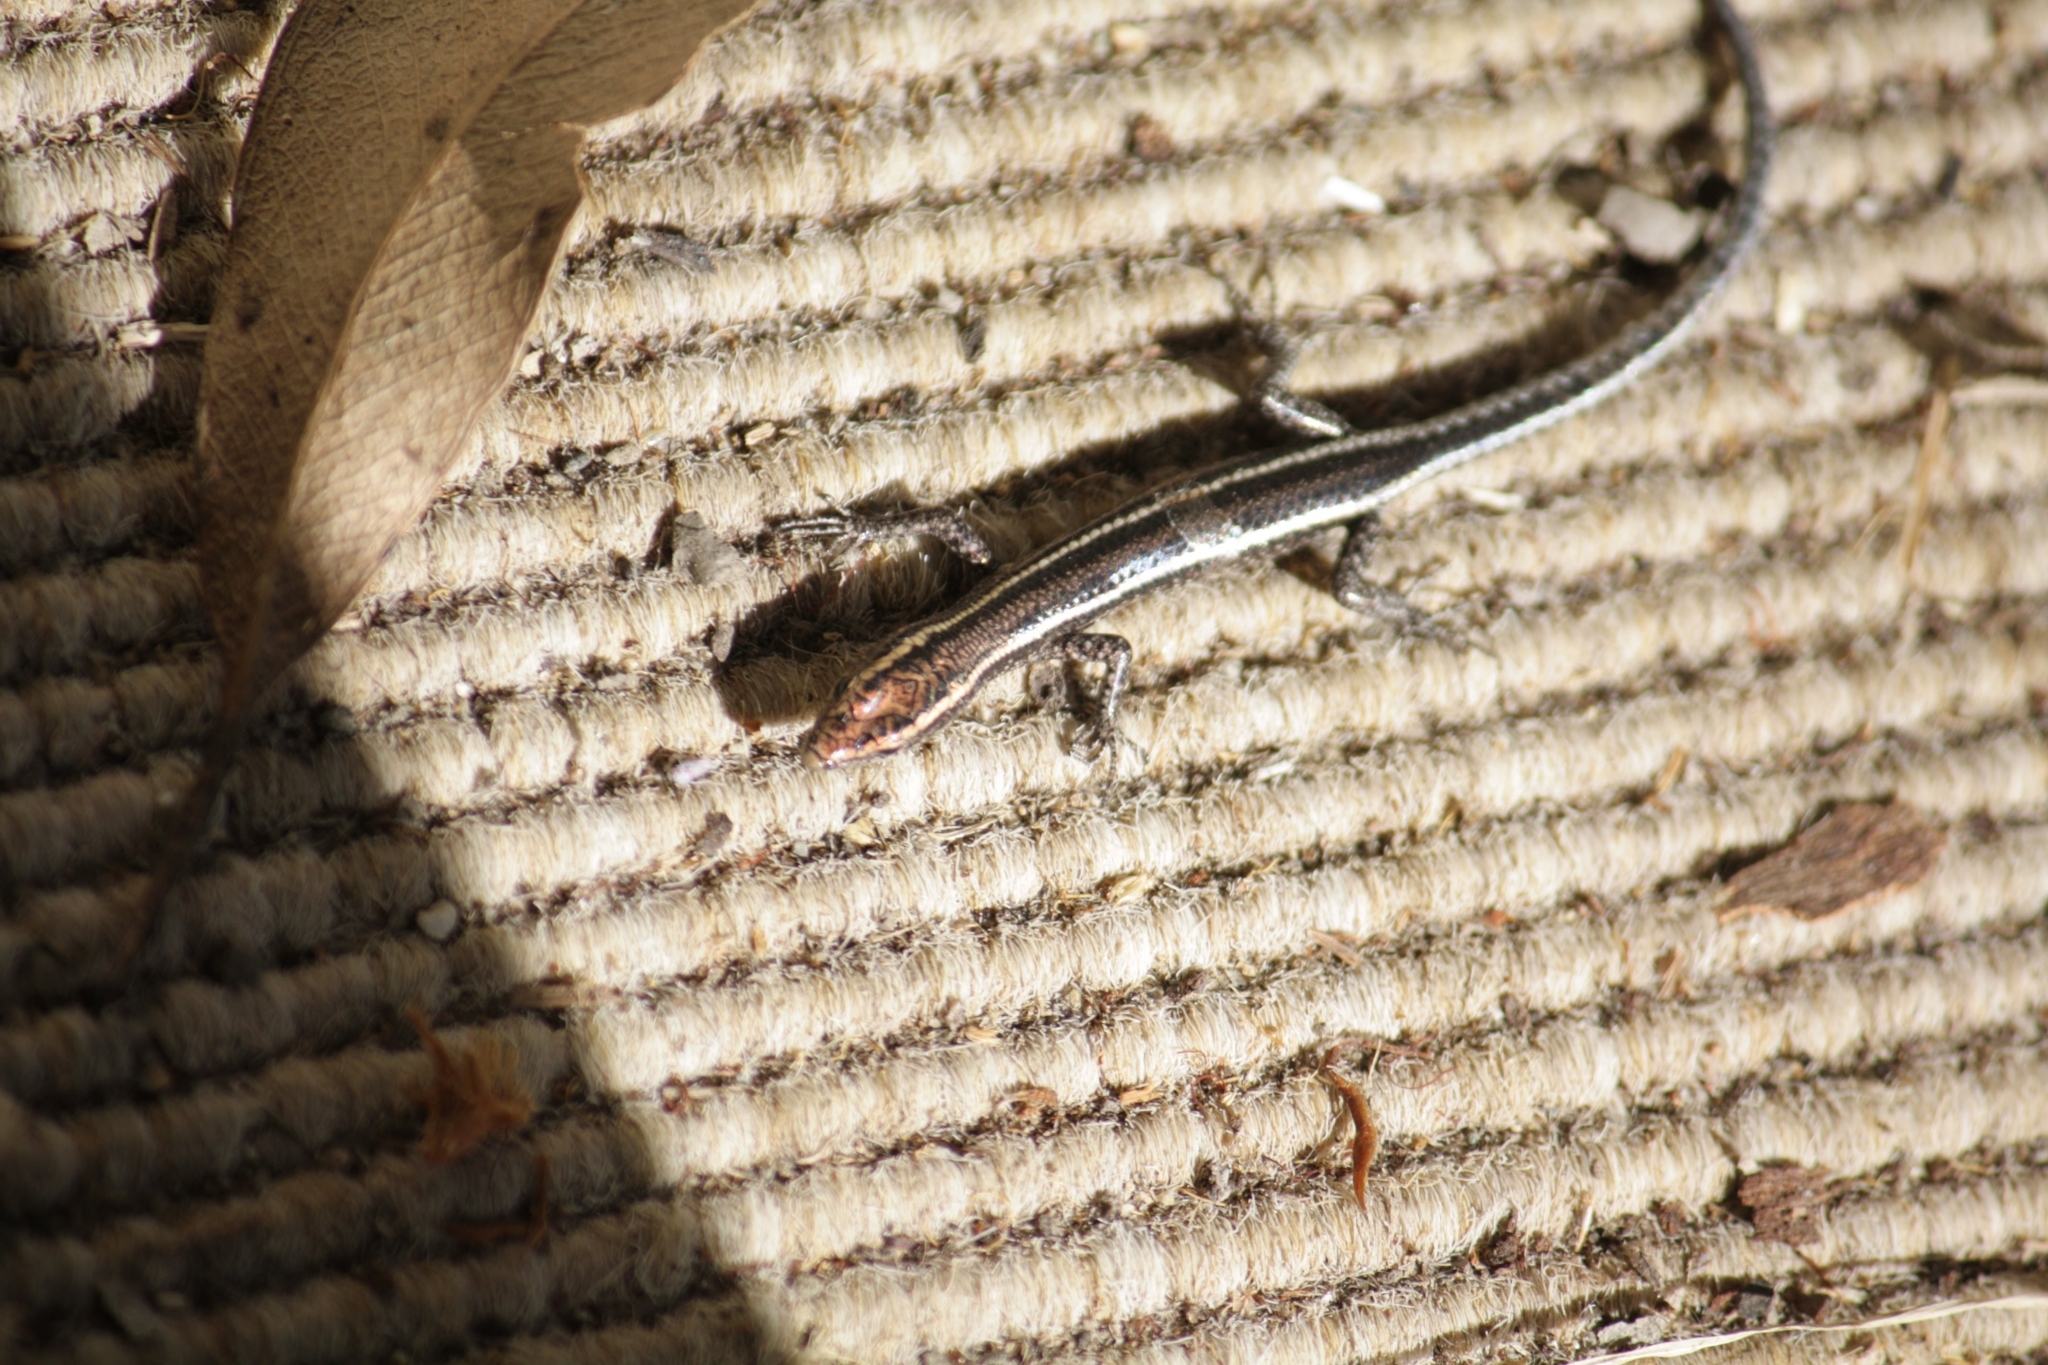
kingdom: Animalia
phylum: Chordata
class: Squamata
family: Scincidae
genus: Cryptoblepharus
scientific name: Cryptoblepharus pulcher
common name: Elegant snake-eyed skink
